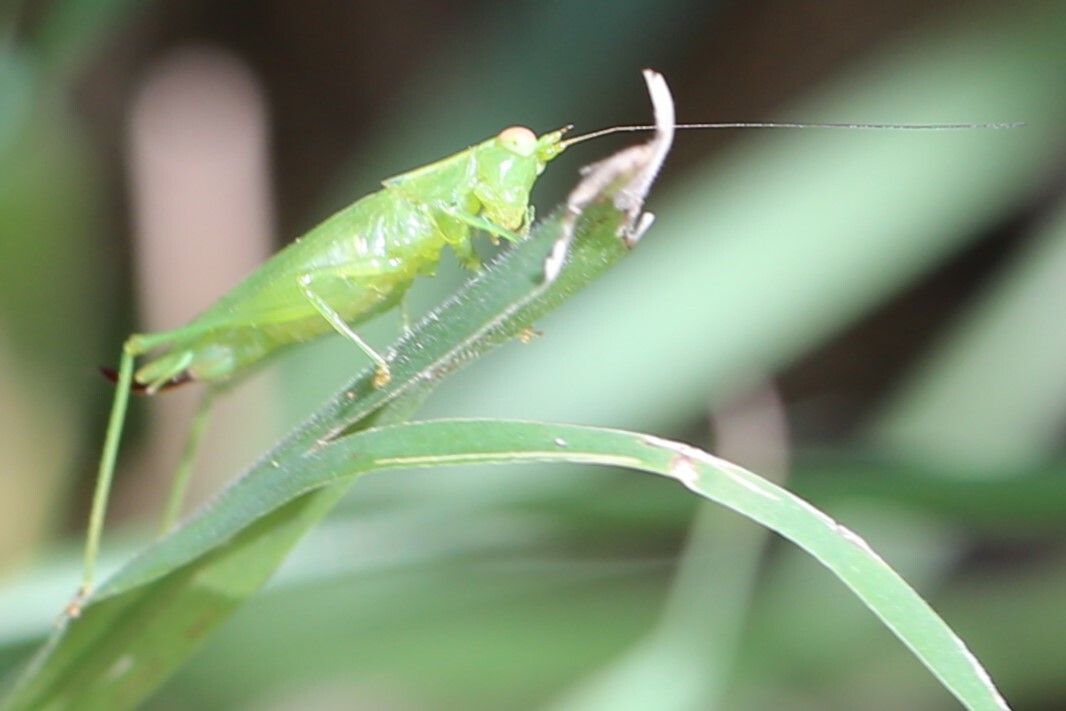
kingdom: Animalia
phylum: Arthropoda
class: Insecta
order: Orthoptera
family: Tettigoniidae
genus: Austrophlugis
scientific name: Austrophlugis debaari
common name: Debaar's swayer
